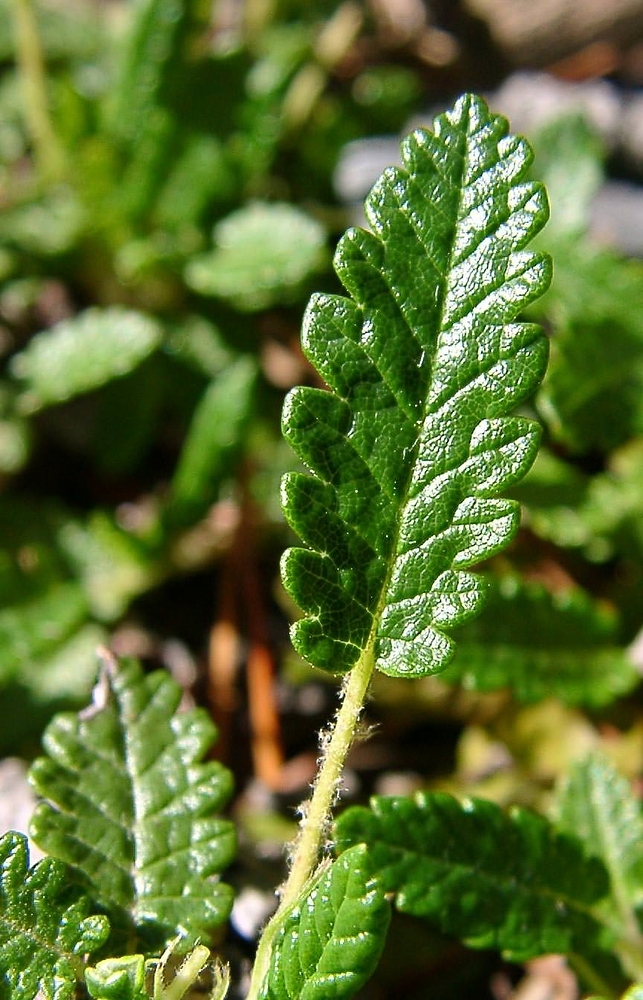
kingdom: Plantae
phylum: Tracheophyta
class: Magnoliopsida
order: Rosales
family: Rosaceae
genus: Dryas
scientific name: Dryas octopetala
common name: Eight-petal mountain-avens
